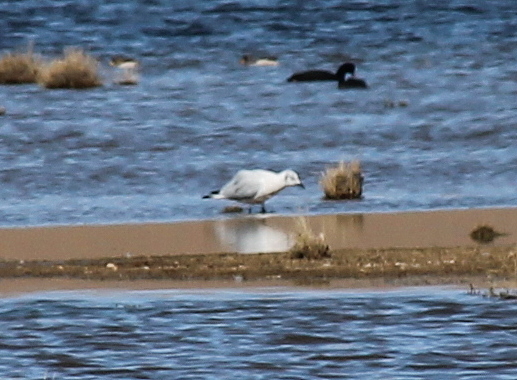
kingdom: Animalia
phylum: Chordata
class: Aves
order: Charadriiformes
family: Laridae
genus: Chroicocephalus
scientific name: Chroicocephalus serranus
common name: Andean gull
